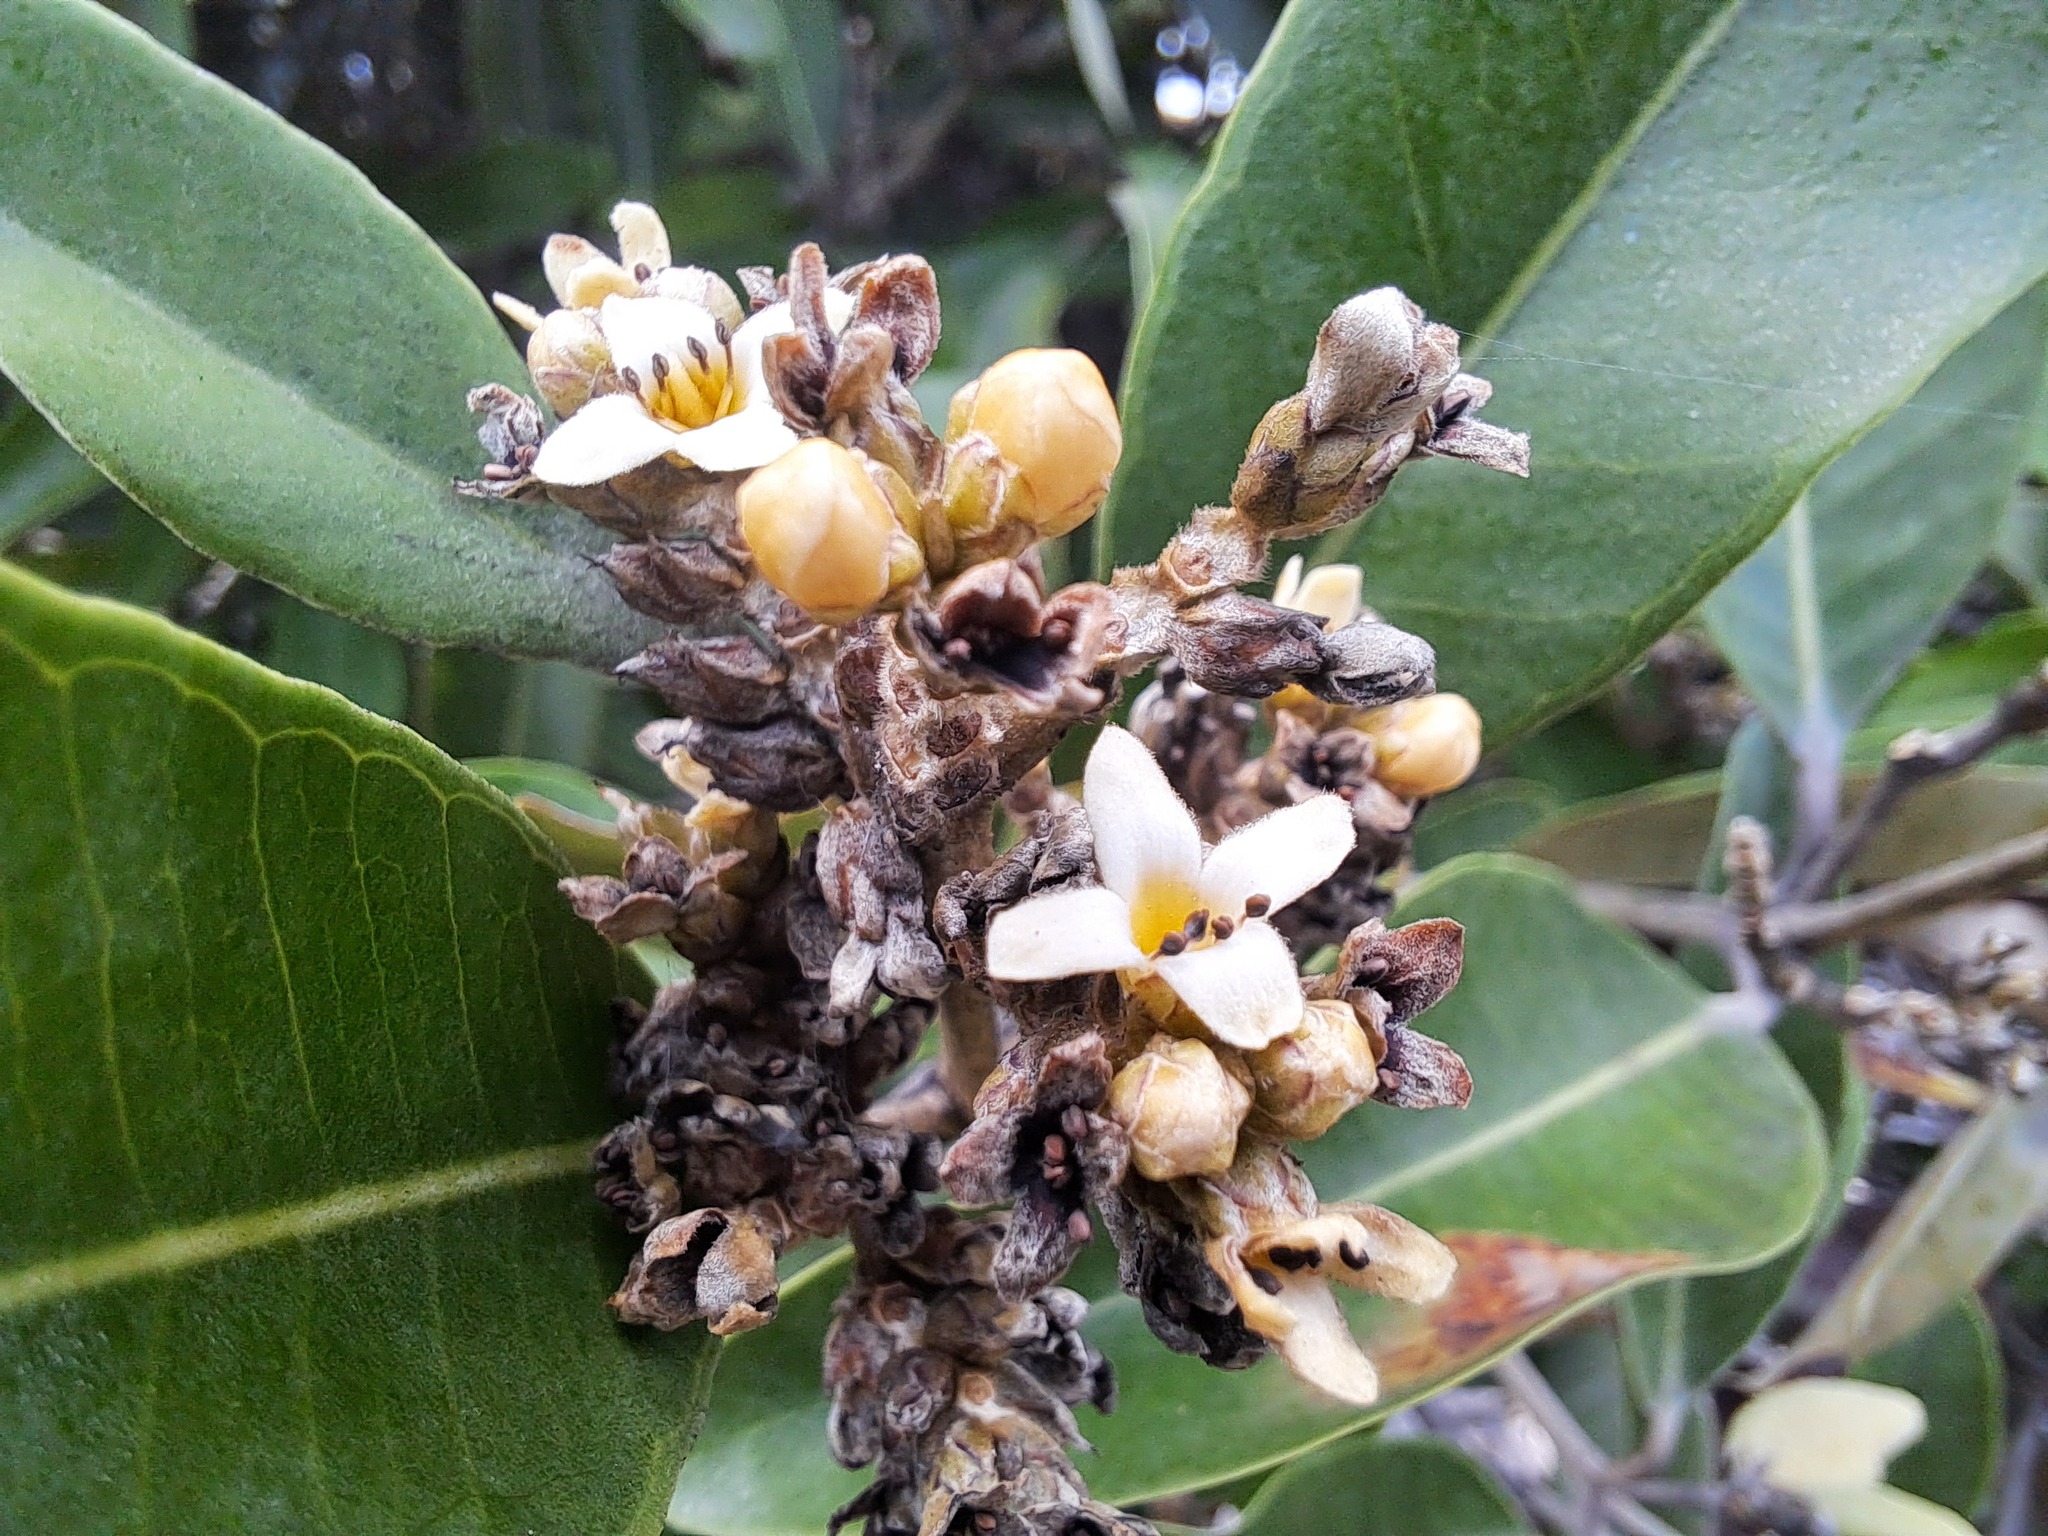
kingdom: Plantae
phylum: Tracheophyta
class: Magnoliopsida
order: Lamiales
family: Acanthaceae
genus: Avicennia
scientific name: Avicennia germinans
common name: Black mangrove
